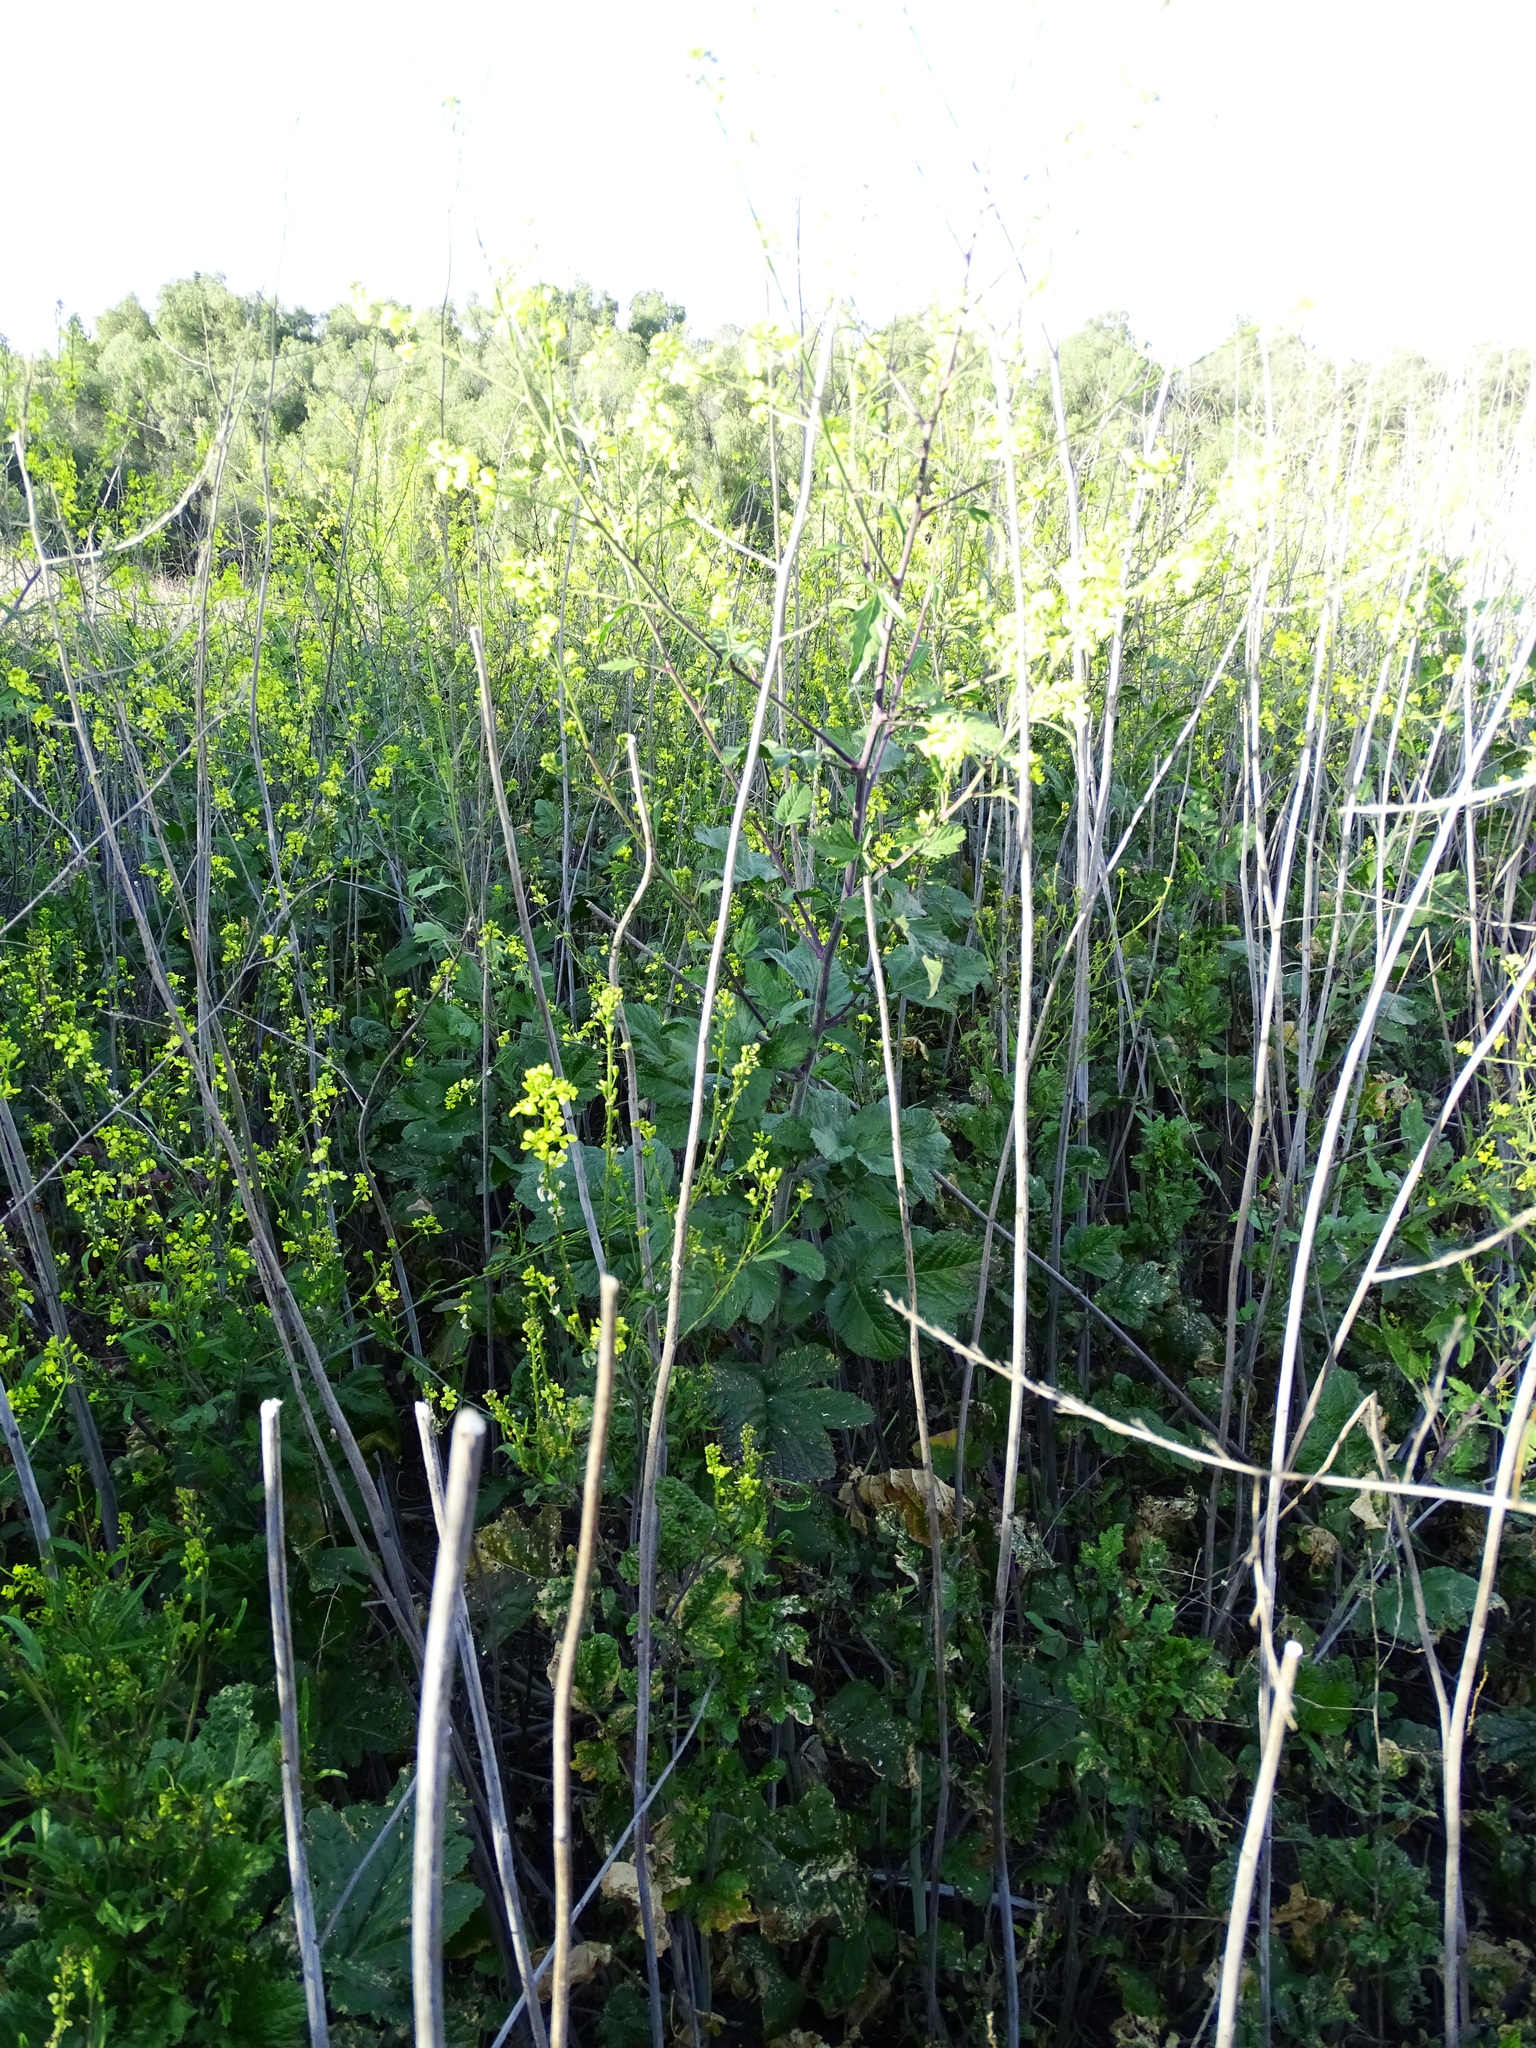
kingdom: Plantae
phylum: Tracheophyta
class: Magnoliopsida
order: Brassicales
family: Brassicaceae
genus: Brassica
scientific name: Brassica nigra
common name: Black mustard
